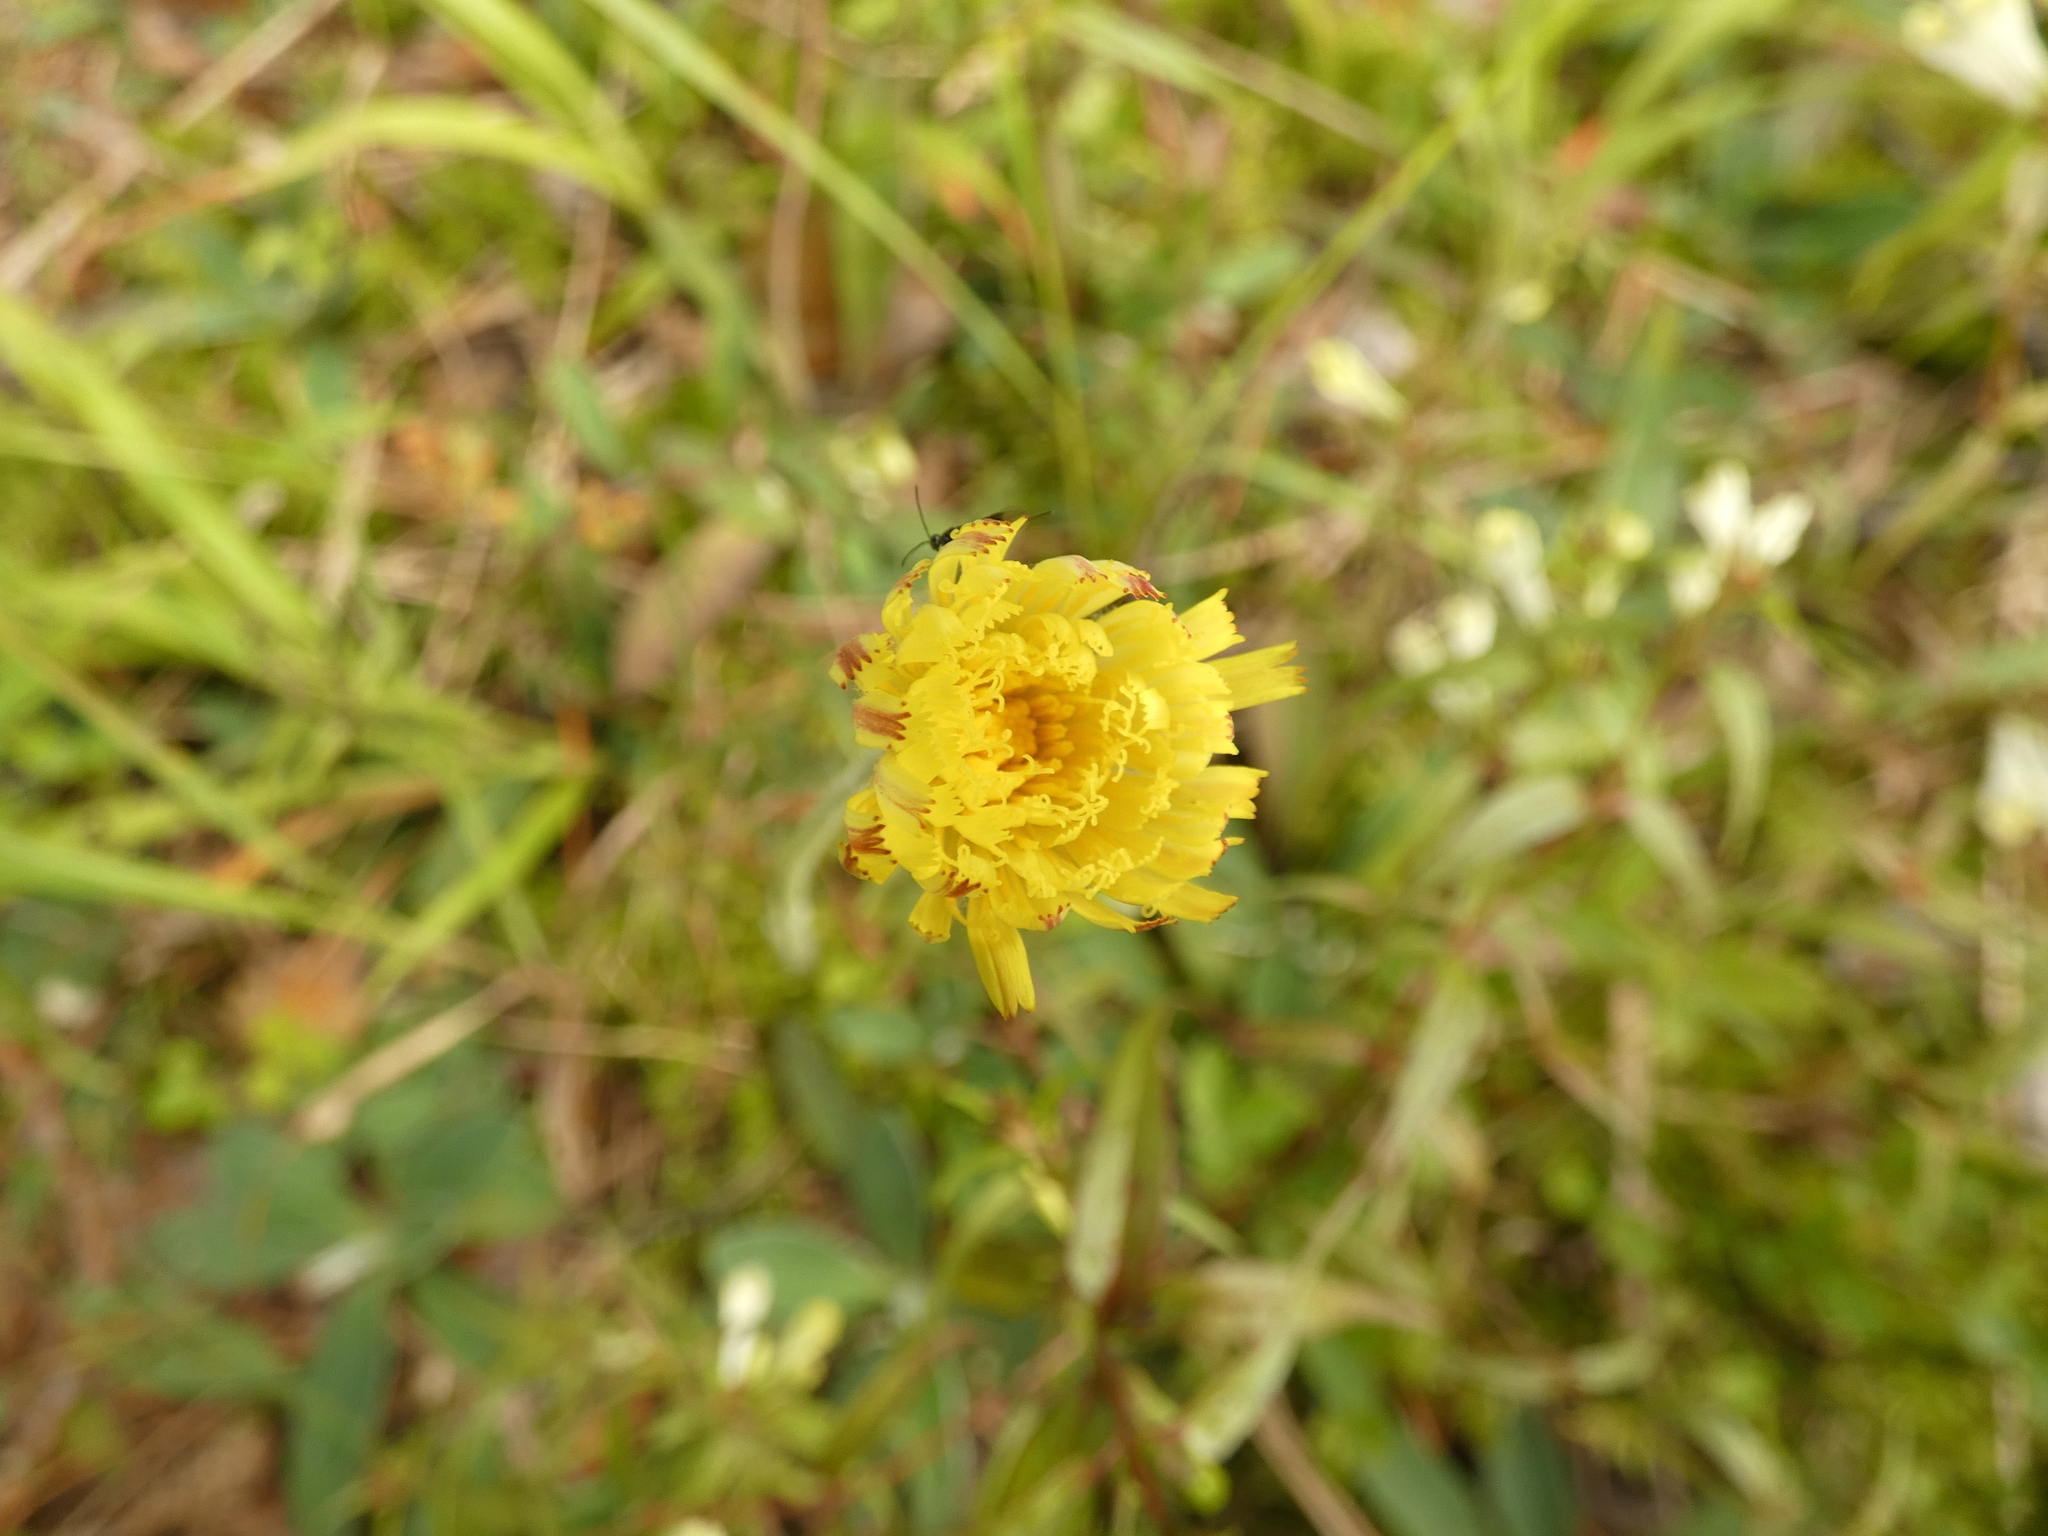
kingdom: Plantae
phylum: Tracheophyta
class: Magnoliopsida
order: Asterales
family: Asteraceae
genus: Pilosella
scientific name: Pilosella officinarum
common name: Mouse-ear hawkweed
